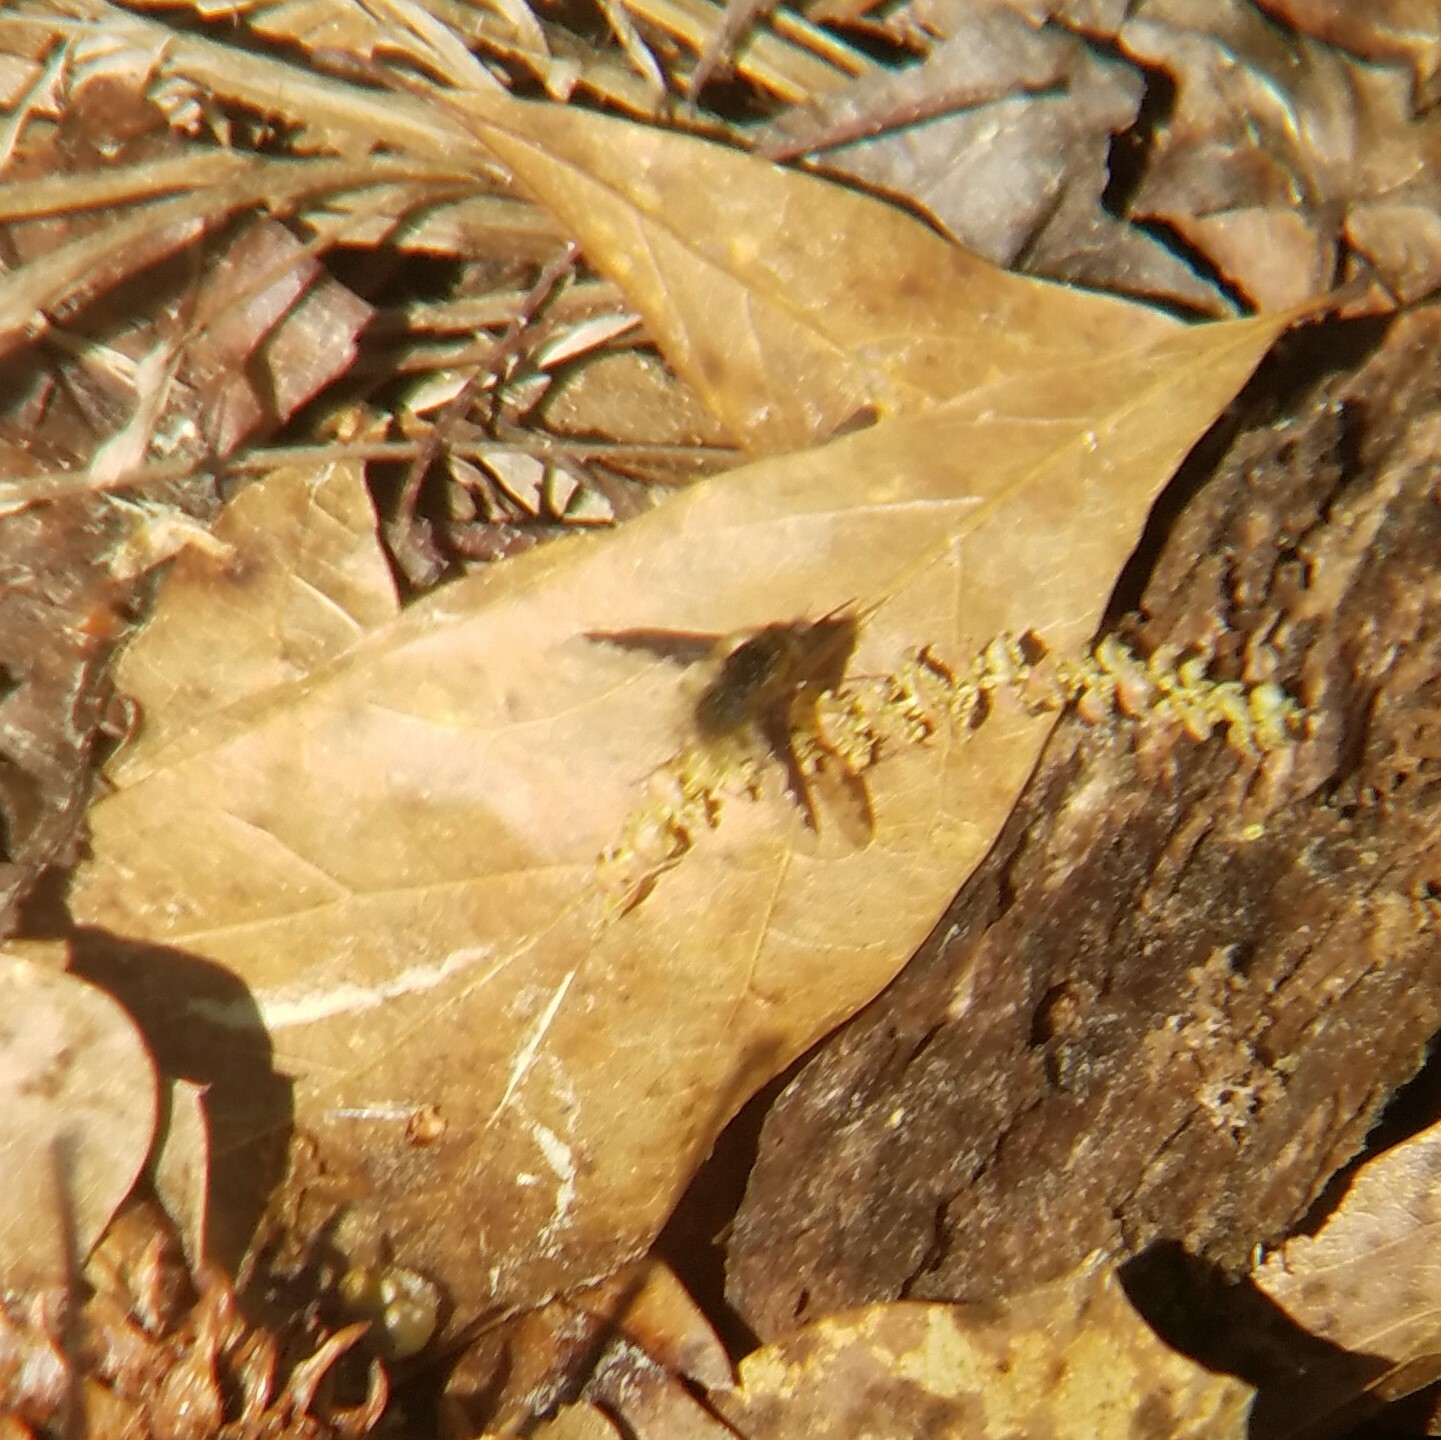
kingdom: Animalia
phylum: Arthropoda
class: Insecta
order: Diptera
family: Bombyliidae
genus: Bombylius
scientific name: Bombylius major
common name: Bee fly
